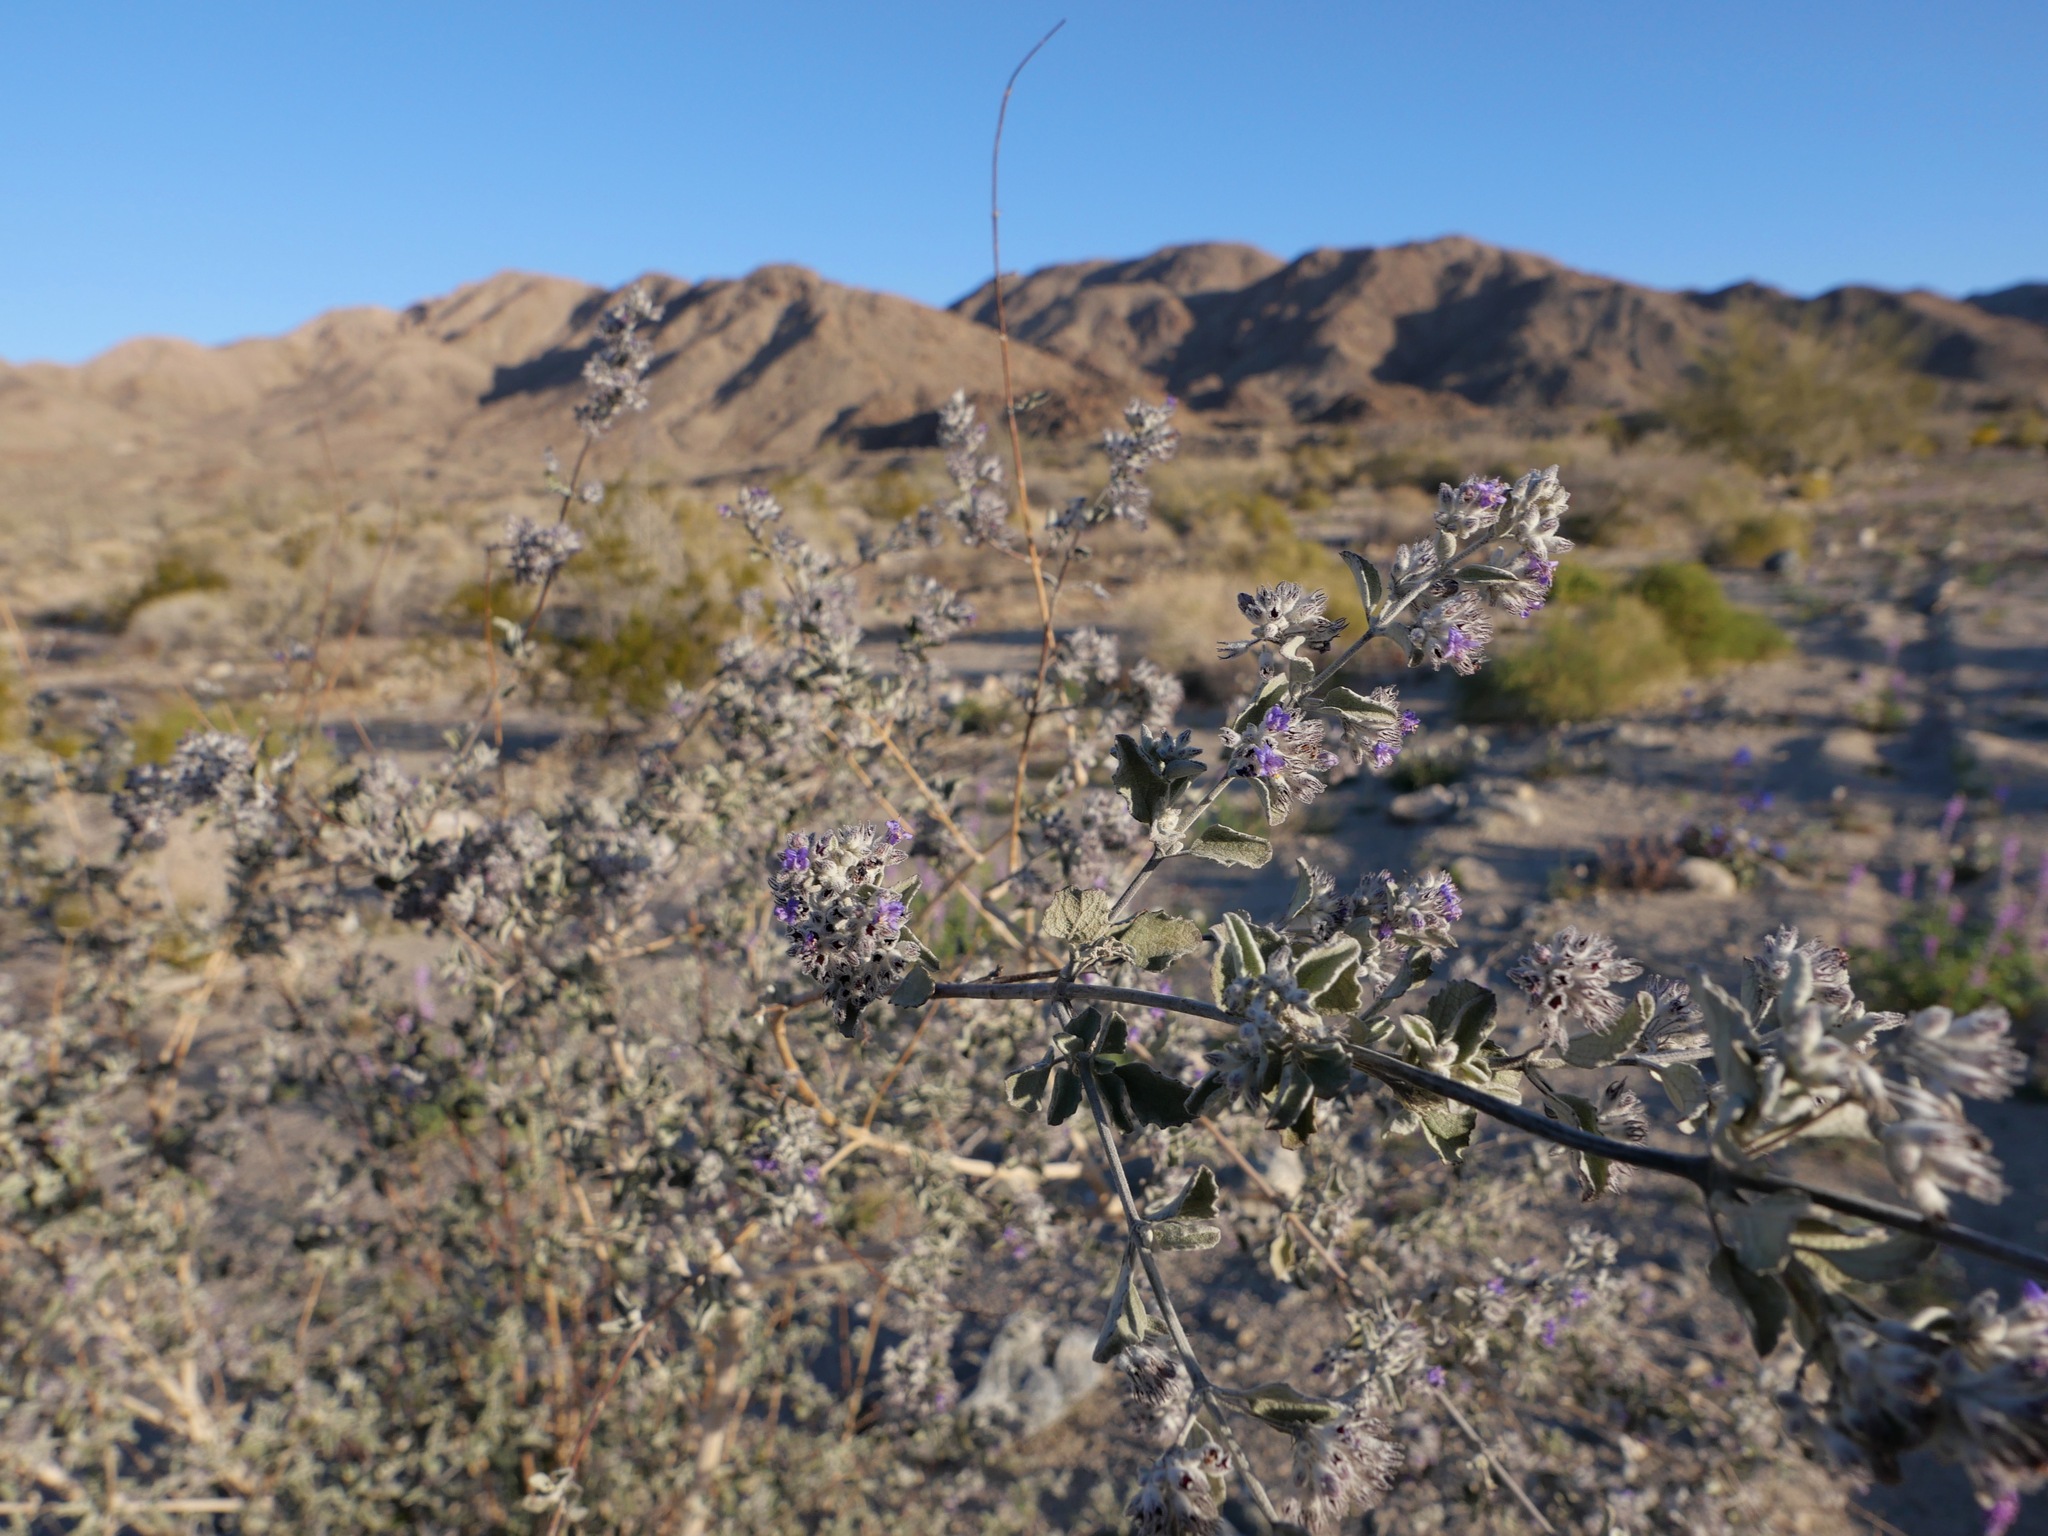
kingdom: Plantae
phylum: Tracheophyta
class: Magnoliopsida
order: Lamiales
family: Lamiaceae
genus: Condea
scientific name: Condea emoryi
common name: Chia
